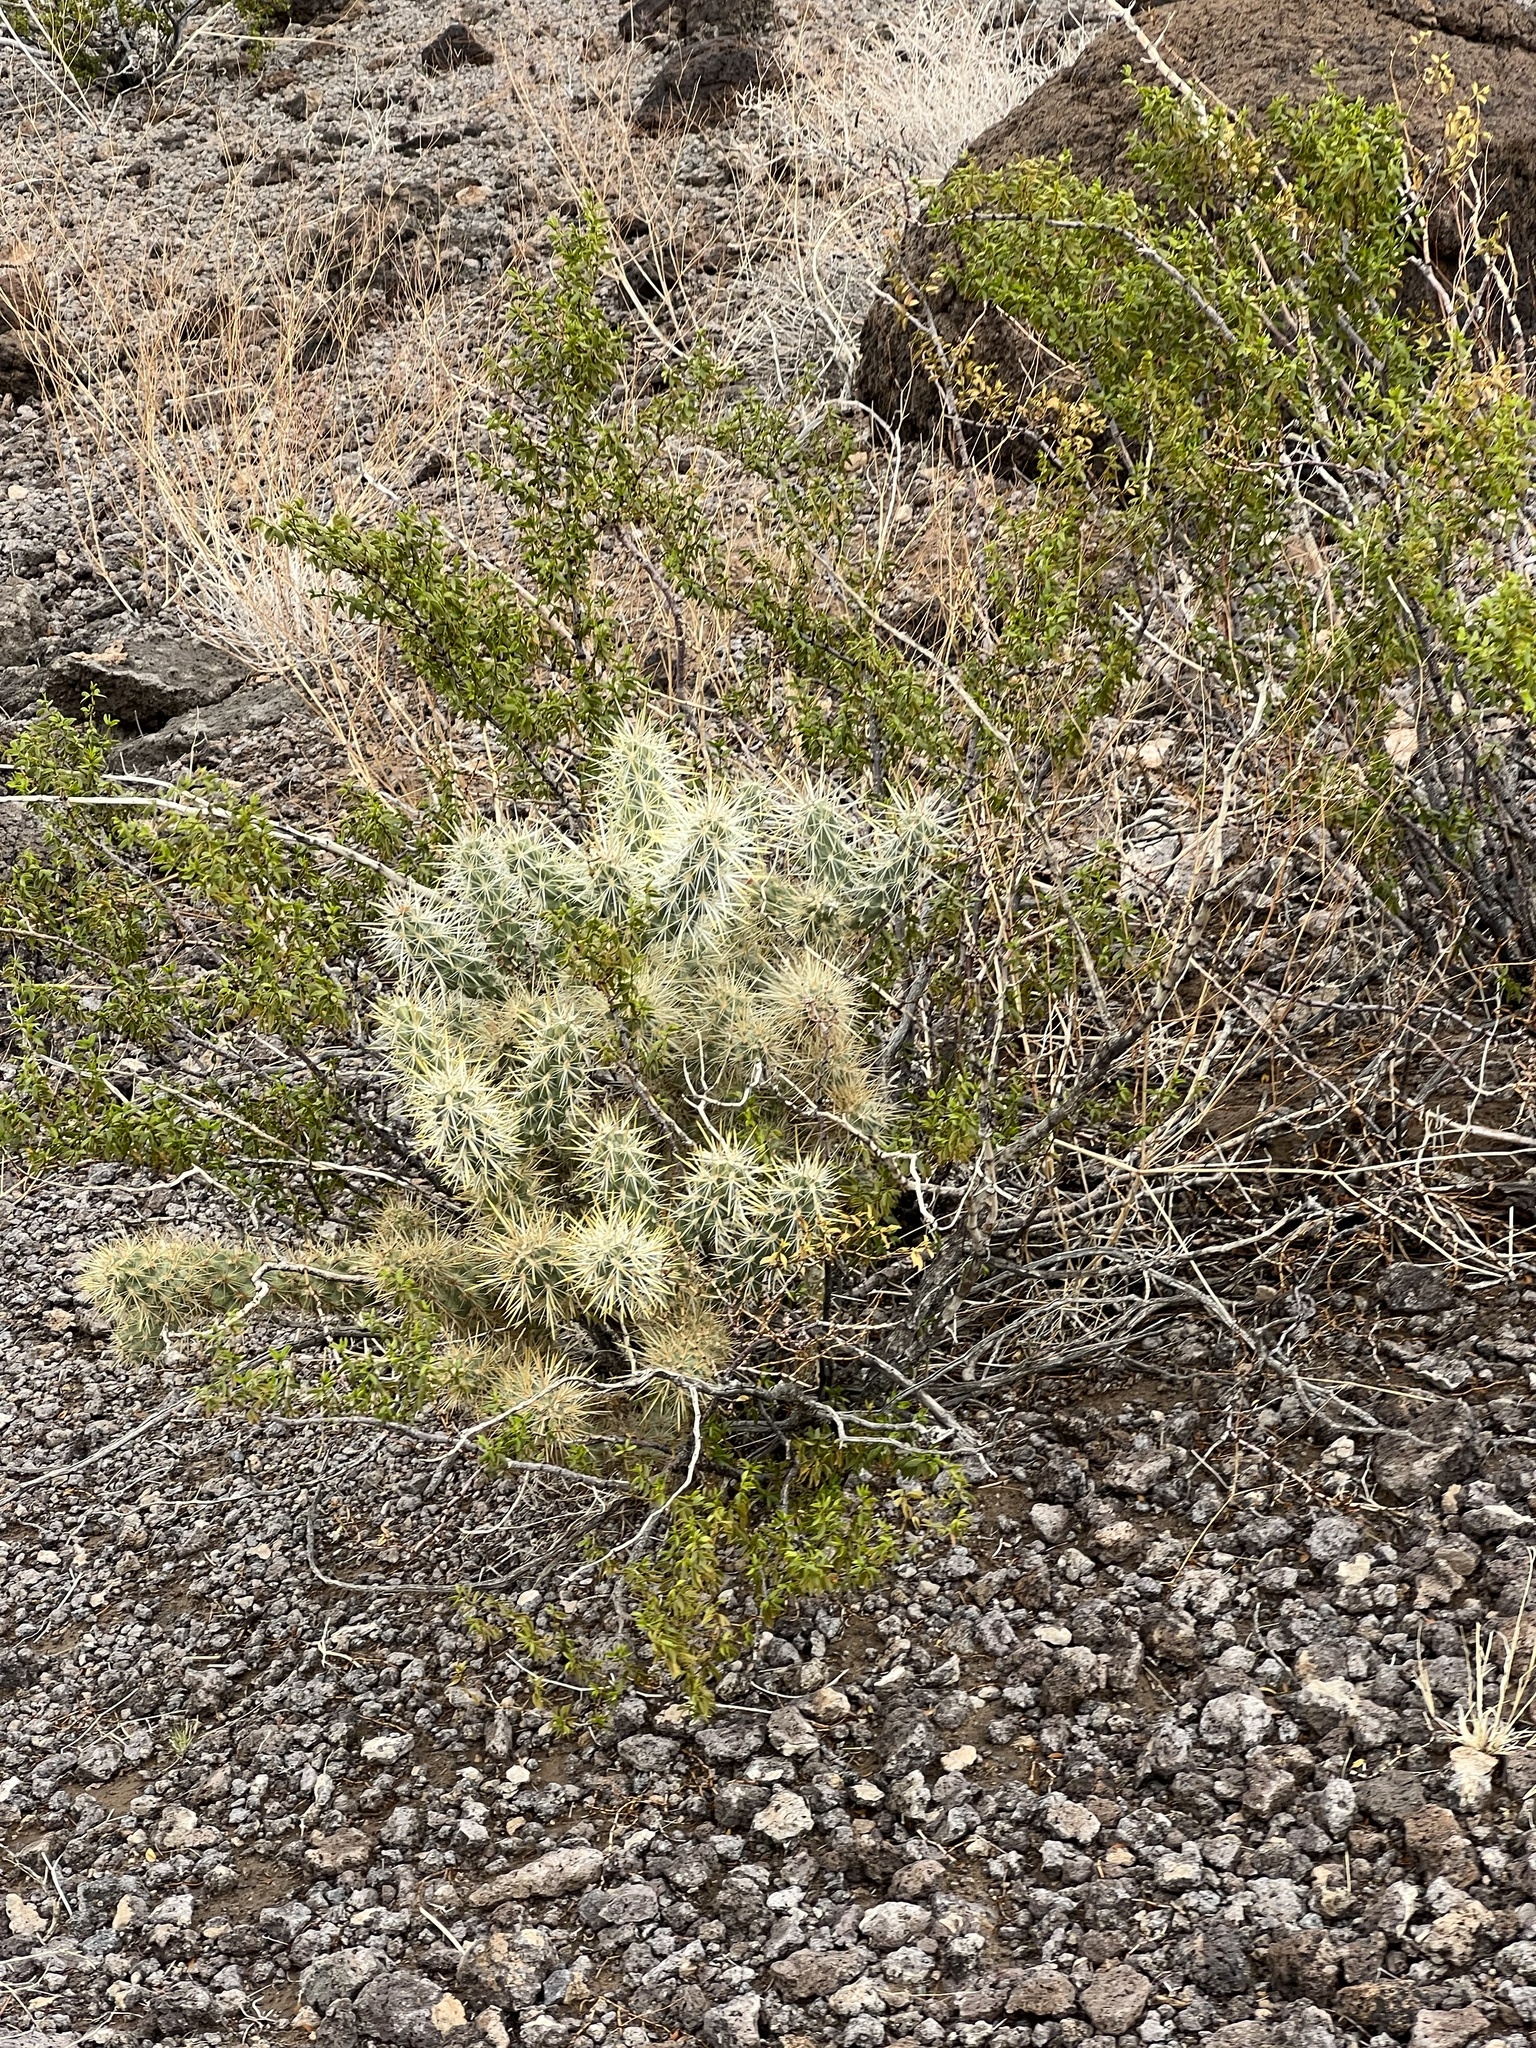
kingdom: Plantae
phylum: Tracheophyta
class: Magnoliopsida
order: Caryophyllales
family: Cactaceae
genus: Cylindropuntia
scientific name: Cylindropuntia echinocarpa
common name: Ground cholla
